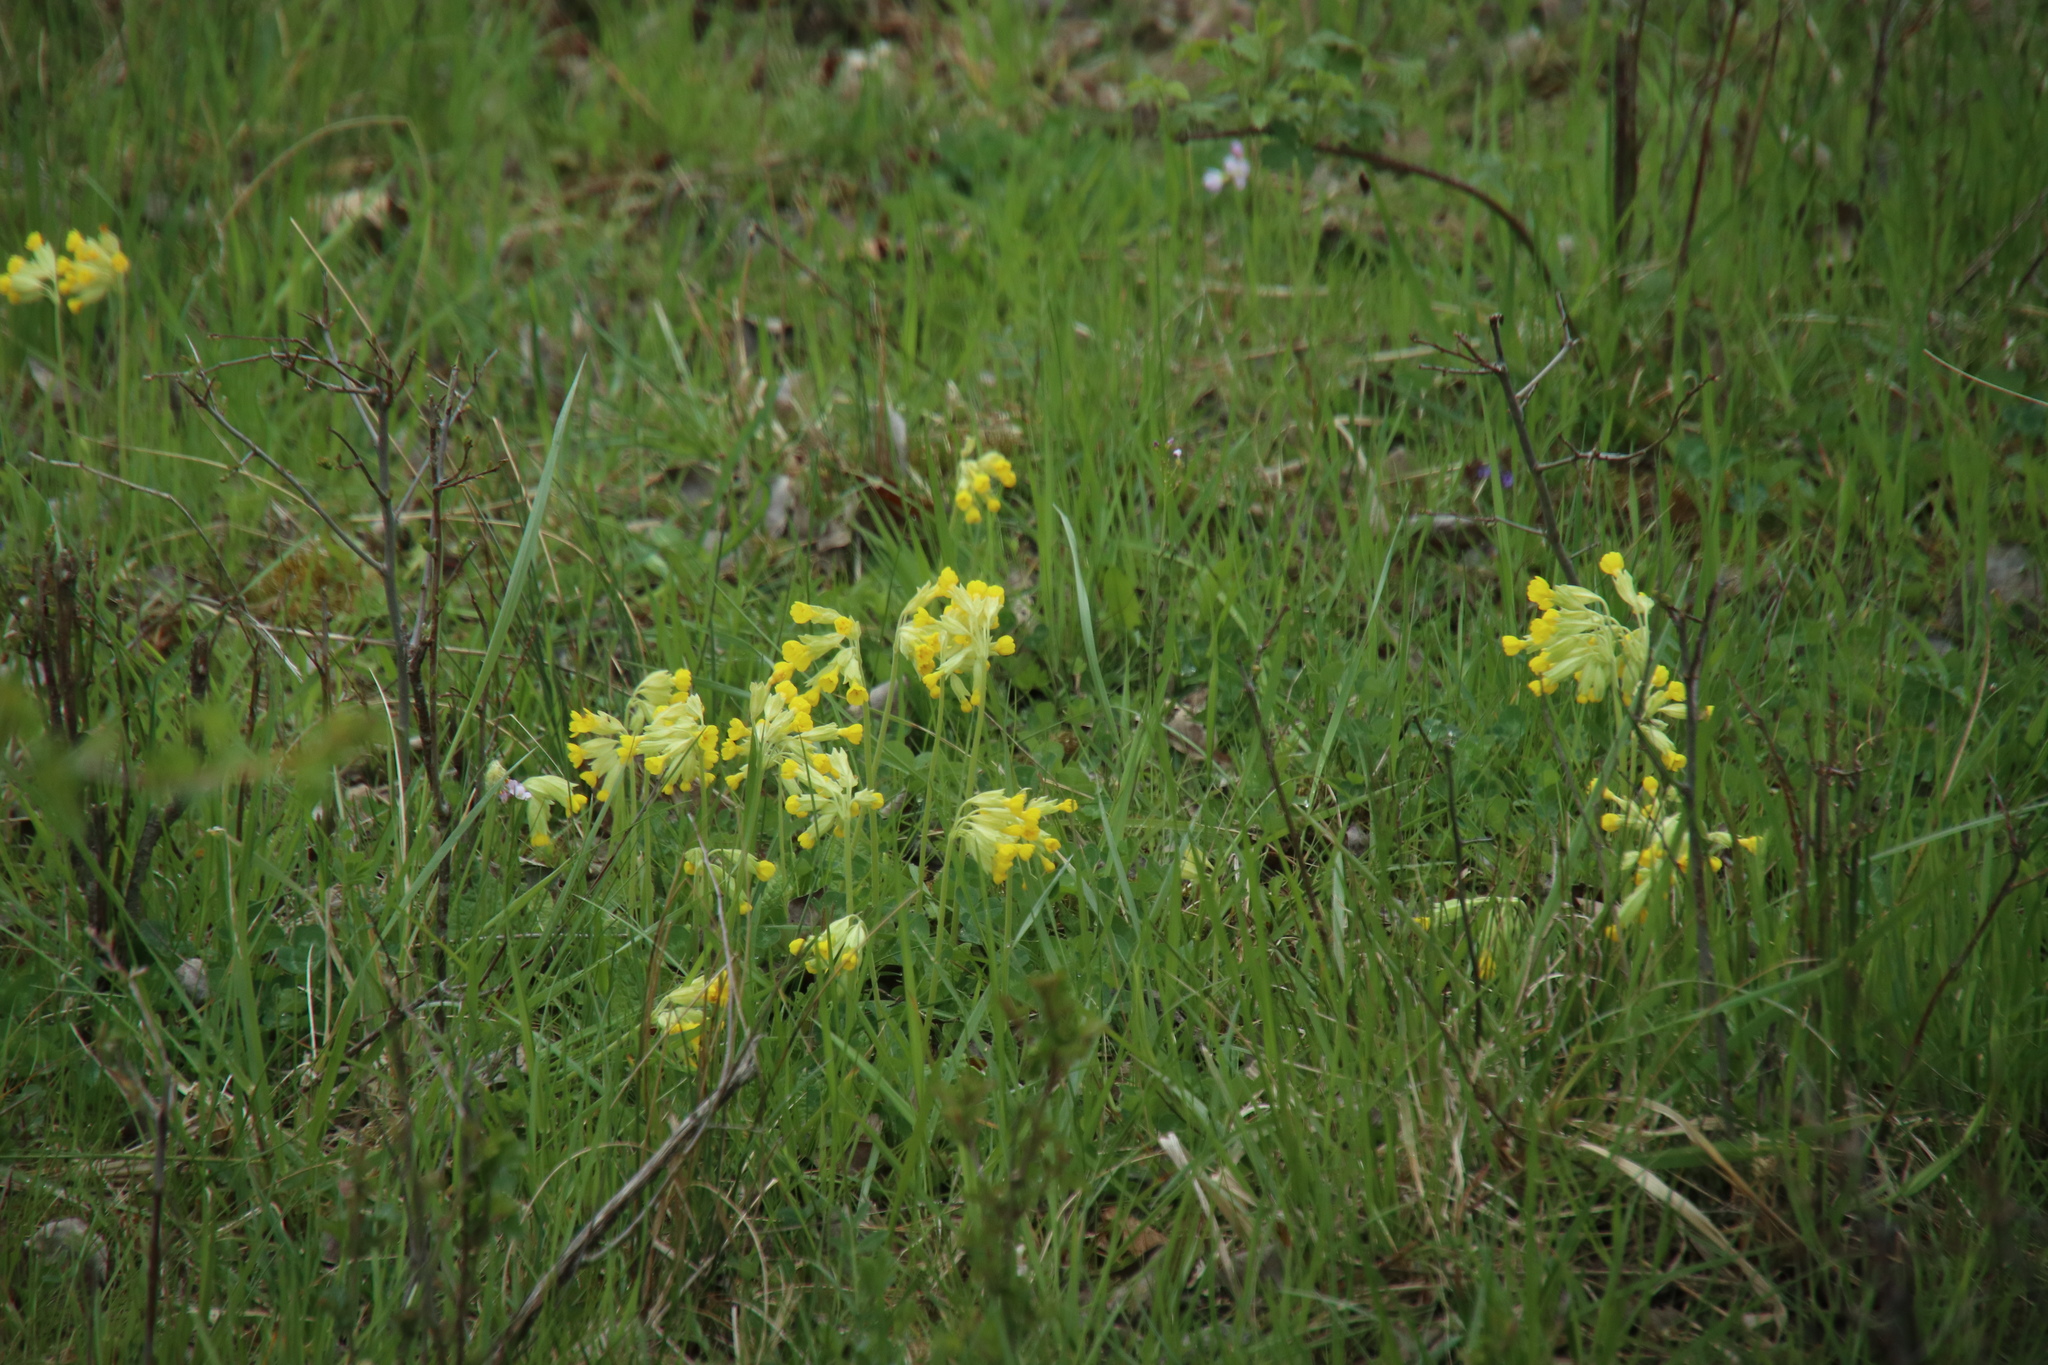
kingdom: Plantae
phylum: Tracheophyta
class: Magnoliopsida
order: Ericales
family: Primulaceae
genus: Primula
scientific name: Primula veris
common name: Cowslip
